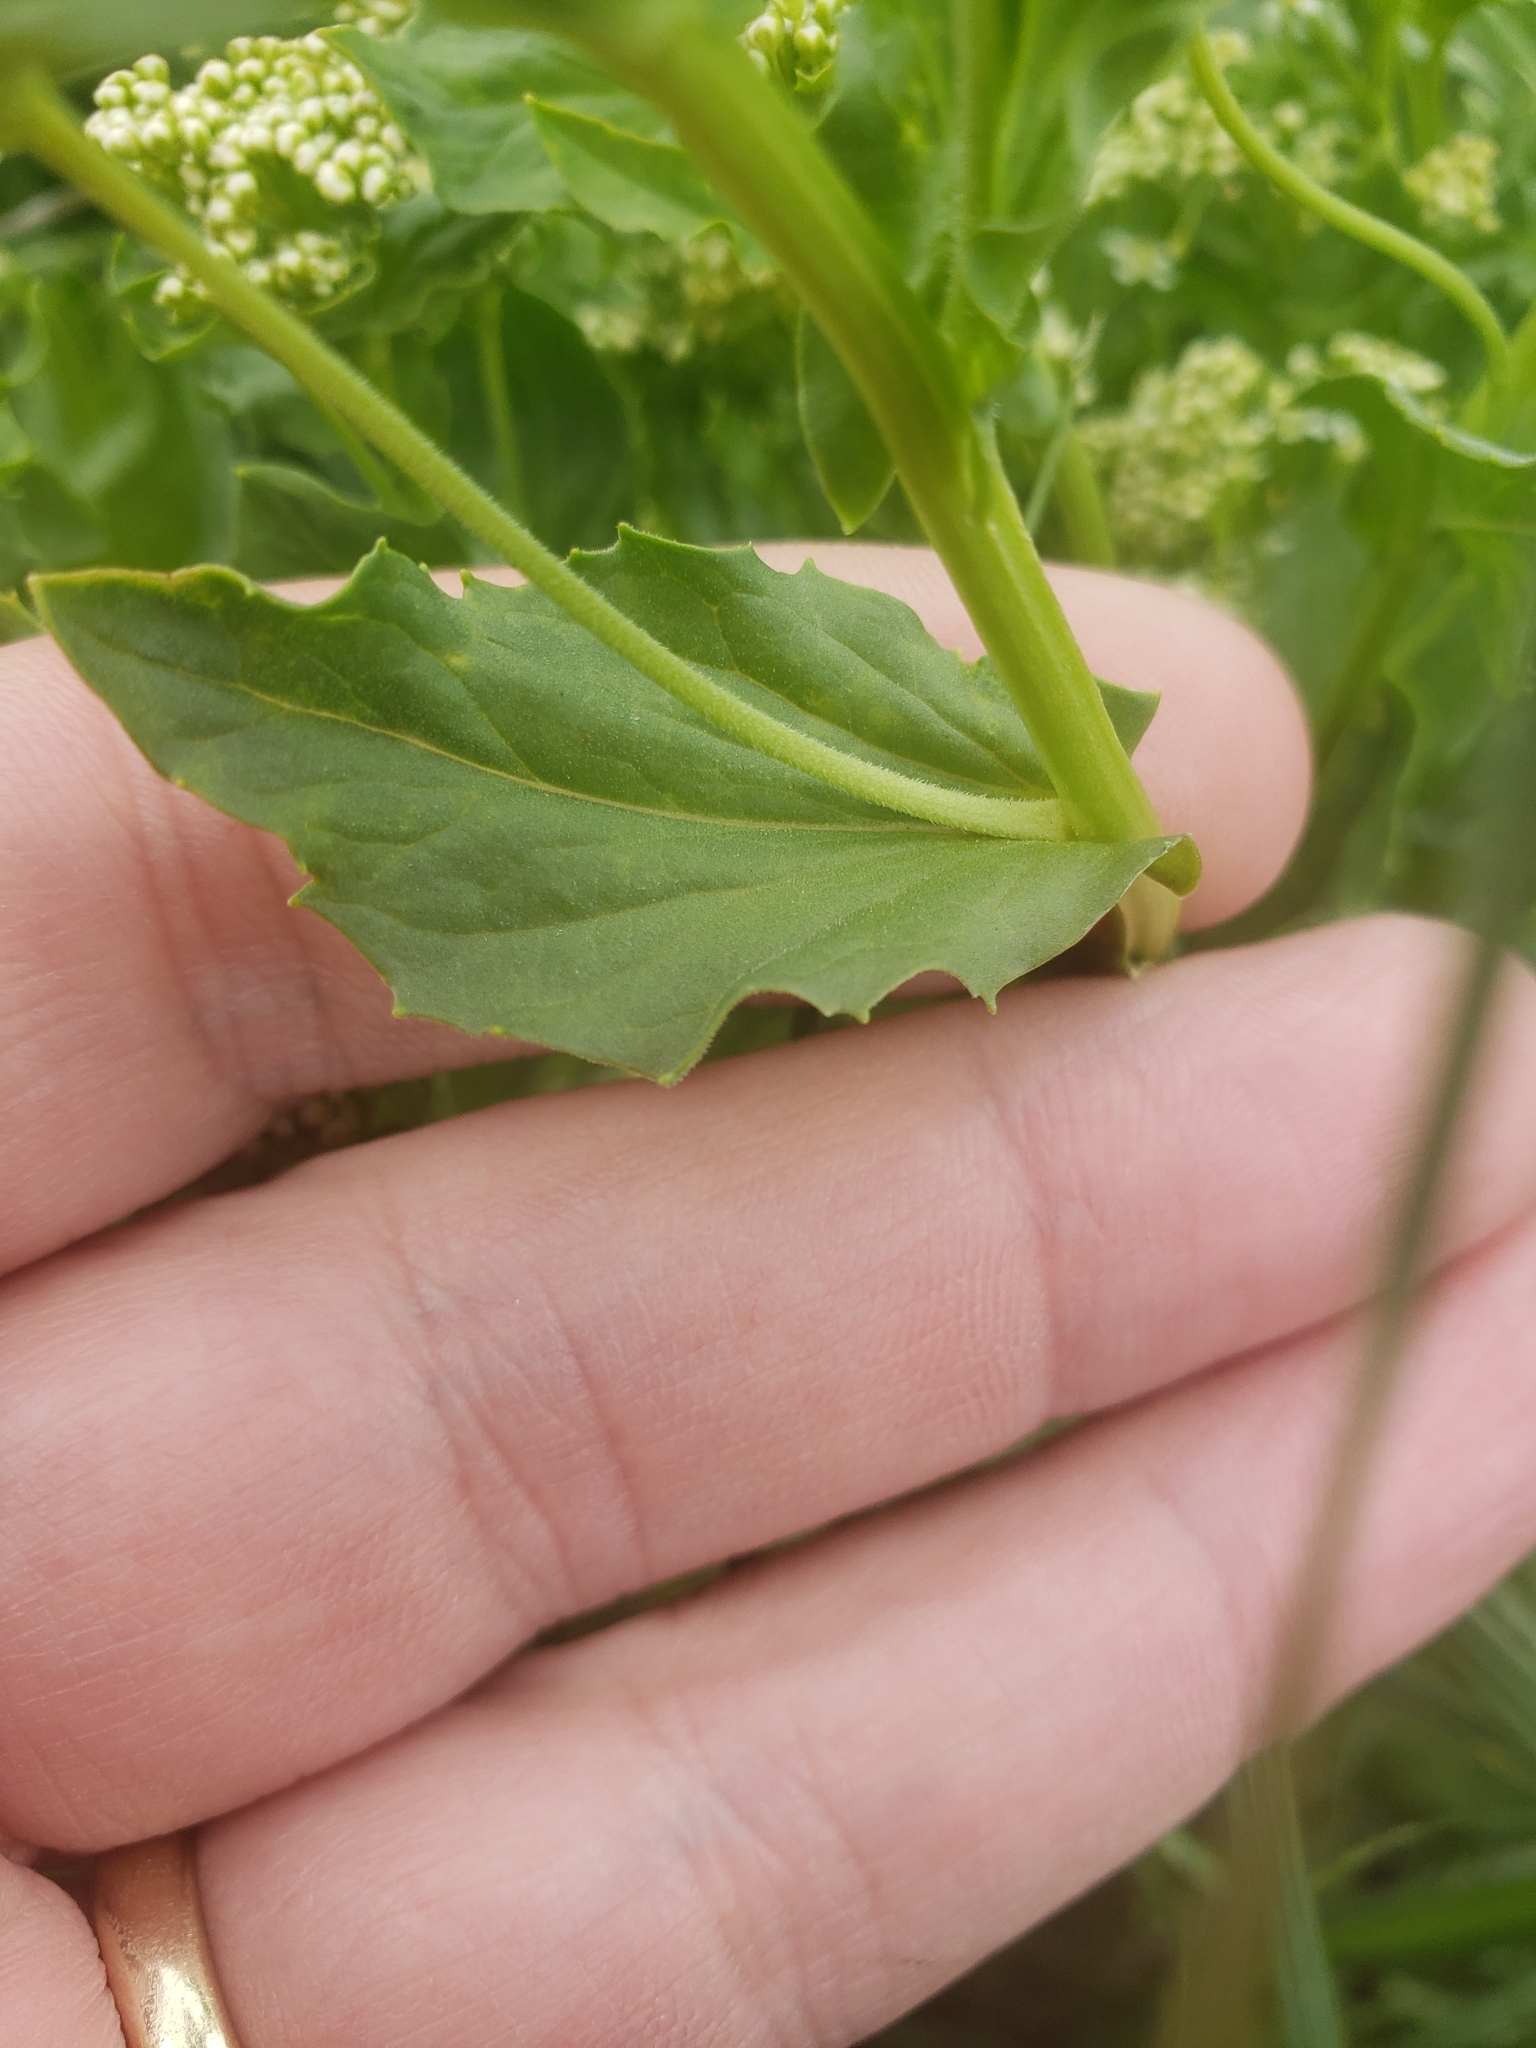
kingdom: Plantae
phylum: Tracheophyta
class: Magnoliopsida
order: Brassicales
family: Brassicaceae
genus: Lepidium
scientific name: Lepidium draba
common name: Hoary cress
